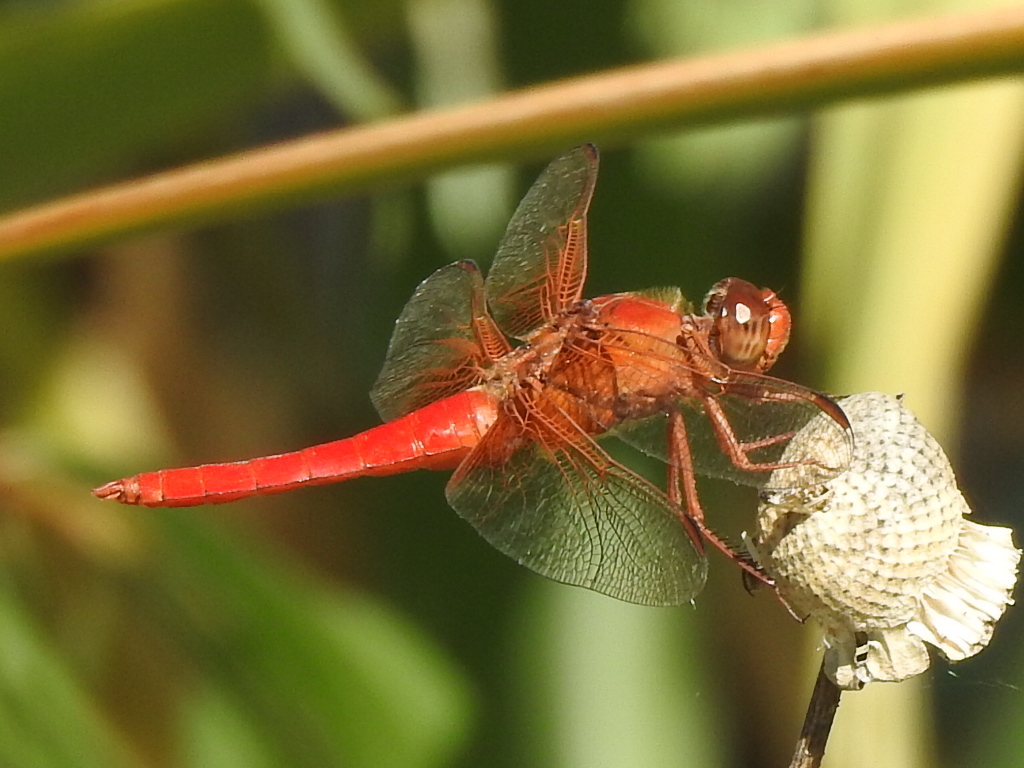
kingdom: Animalia
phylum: Arthropoda
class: Insecta
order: Odonata
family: Libellulidae
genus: Libellula
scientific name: Libellula croceipennis
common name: Neon skimmer
